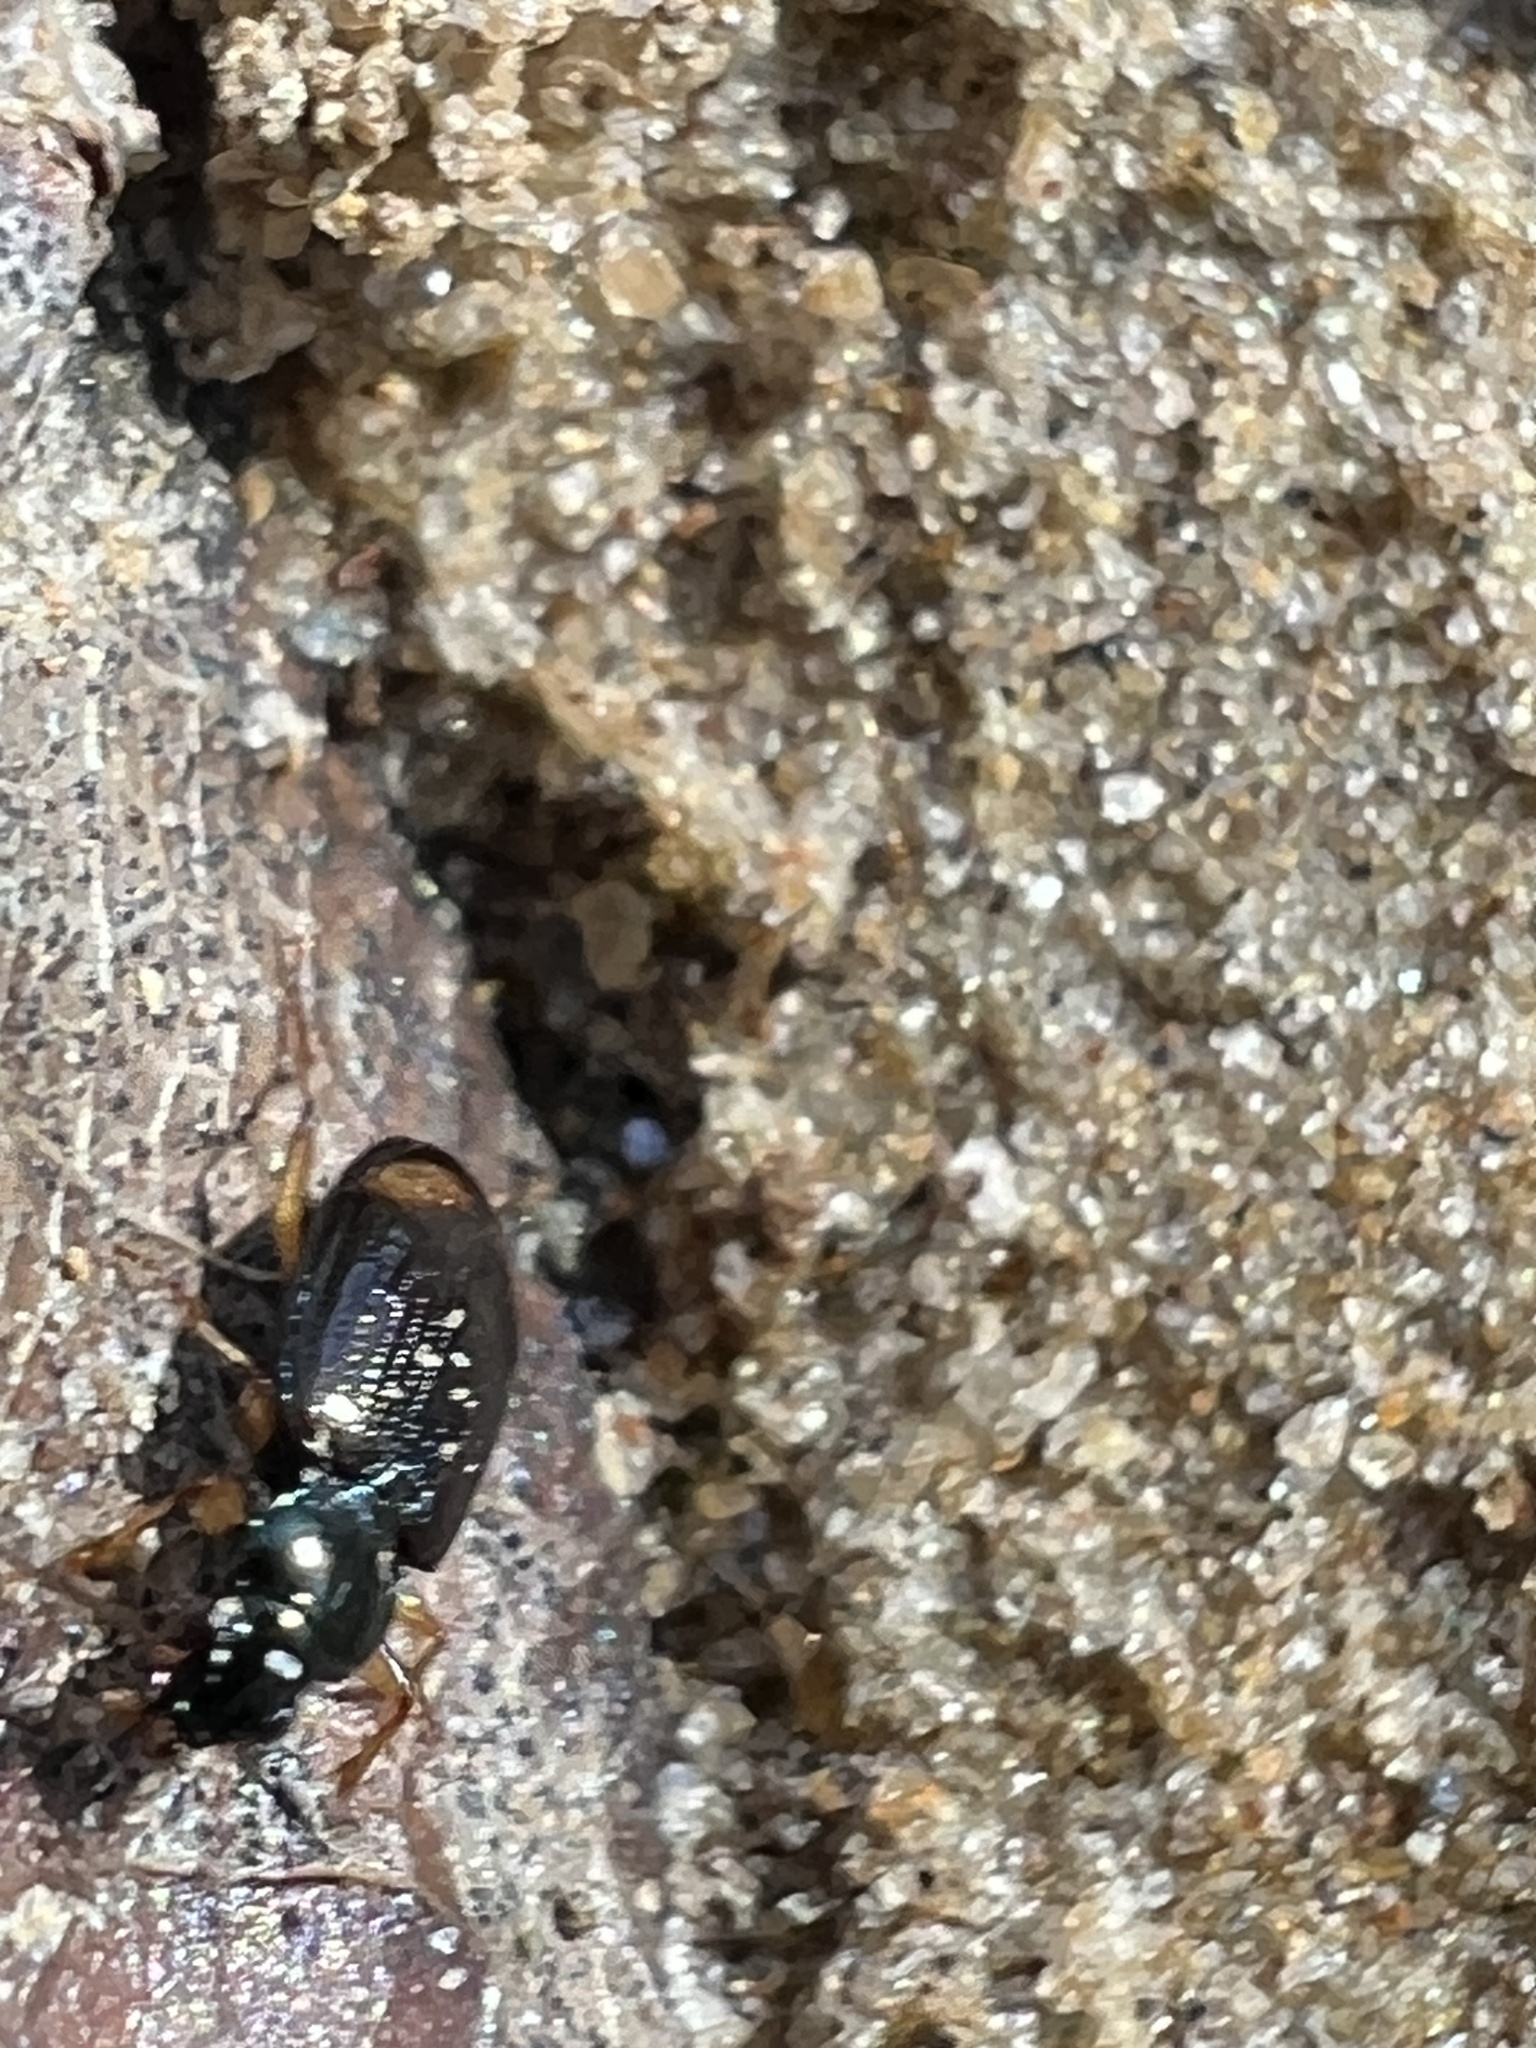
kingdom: Animalia
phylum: Arthropoda
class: Insecta
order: Coleoptera
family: Carabidae
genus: Bembidion
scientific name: Bembidion plagiatum
